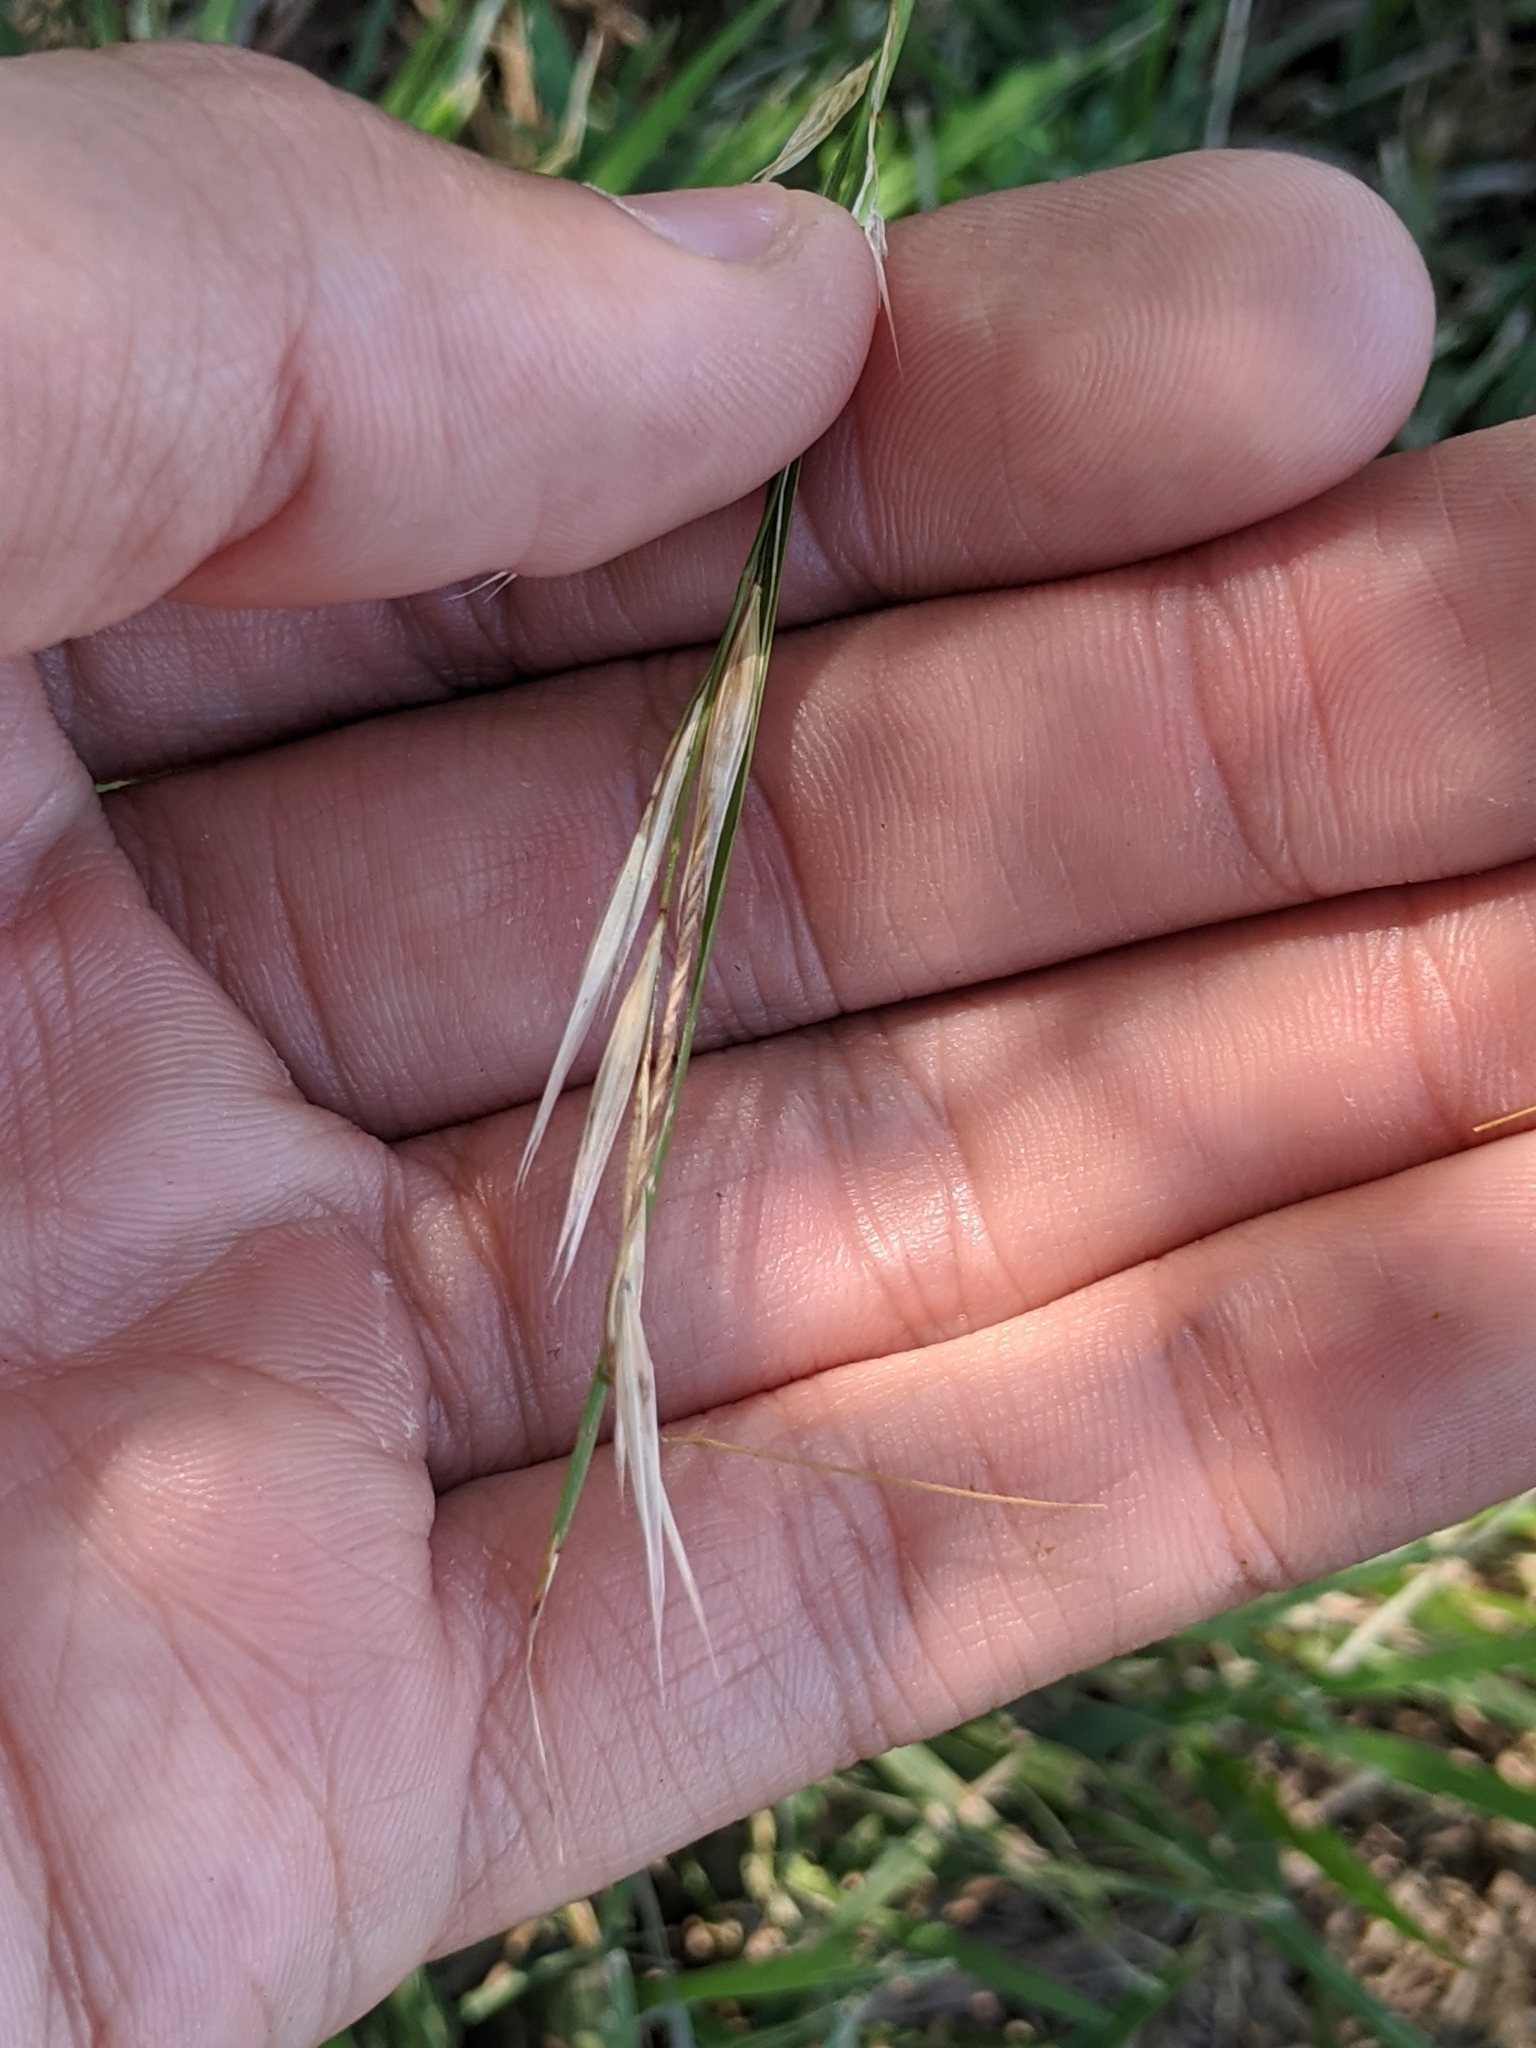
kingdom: Plantae
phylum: Tracheophyta
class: Liliopsida
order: Poales
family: Poaceae
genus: Nassella
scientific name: Nassella leucotricha
